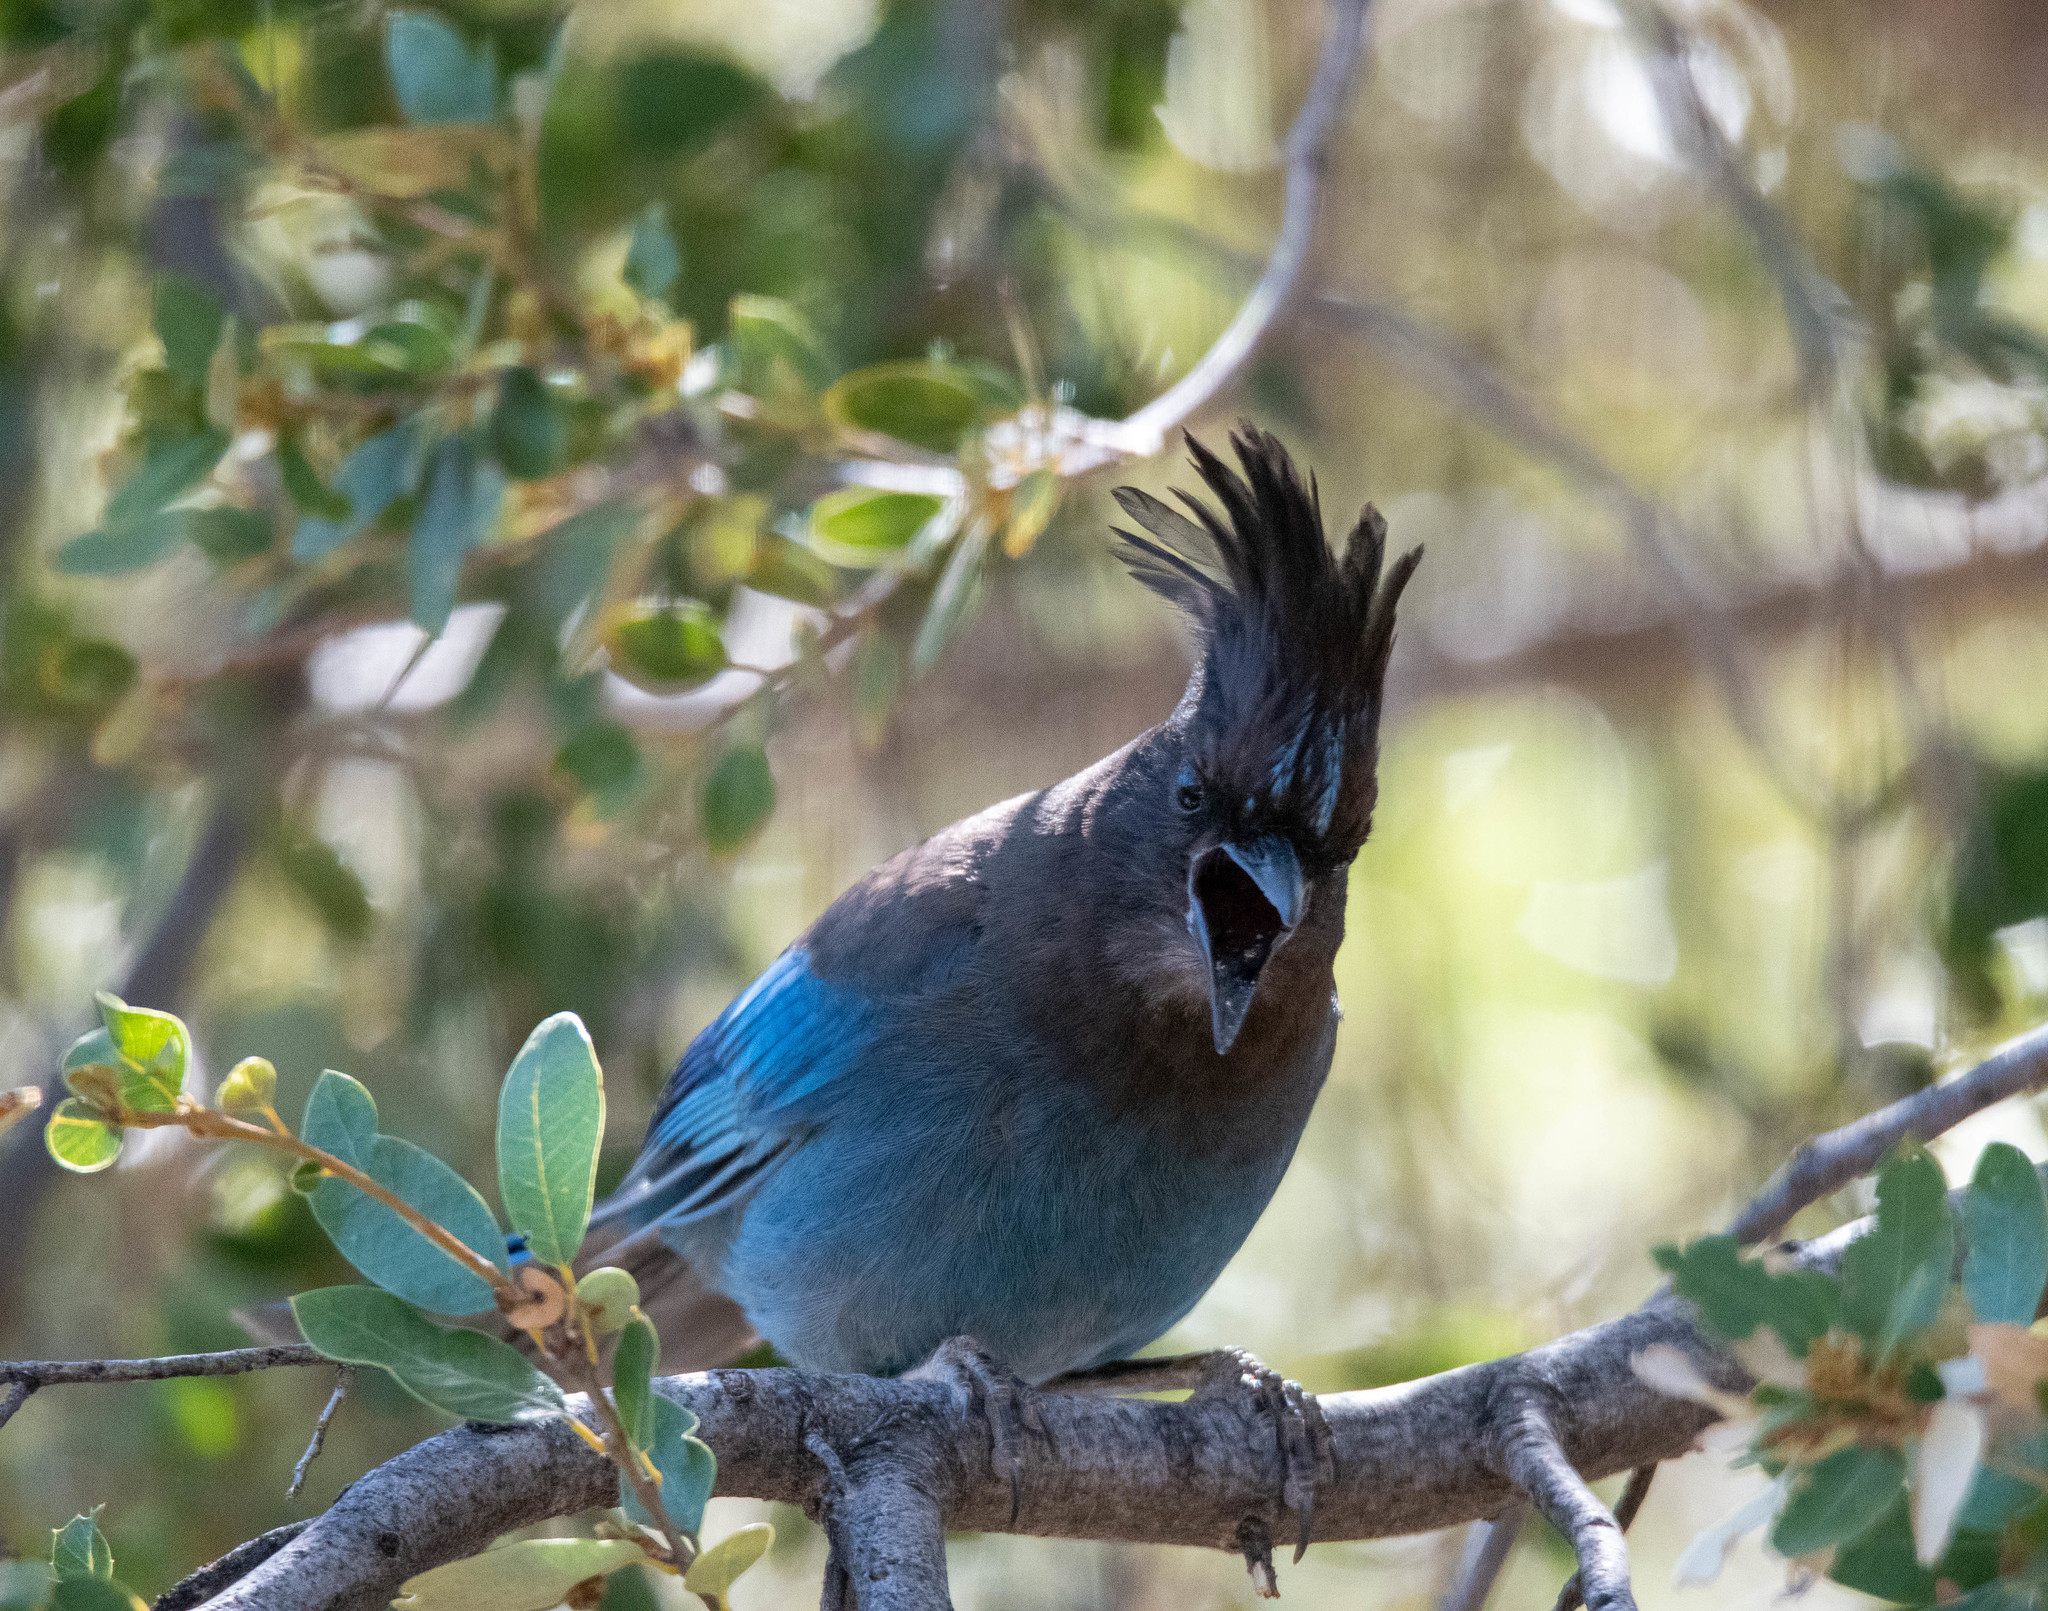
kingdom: Animalia
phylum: Chordata
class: Aves
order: Passeriformes
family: Corvidae
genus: Cyanocitta
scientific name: Cyanocitta stelleri
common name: Steller's jay
